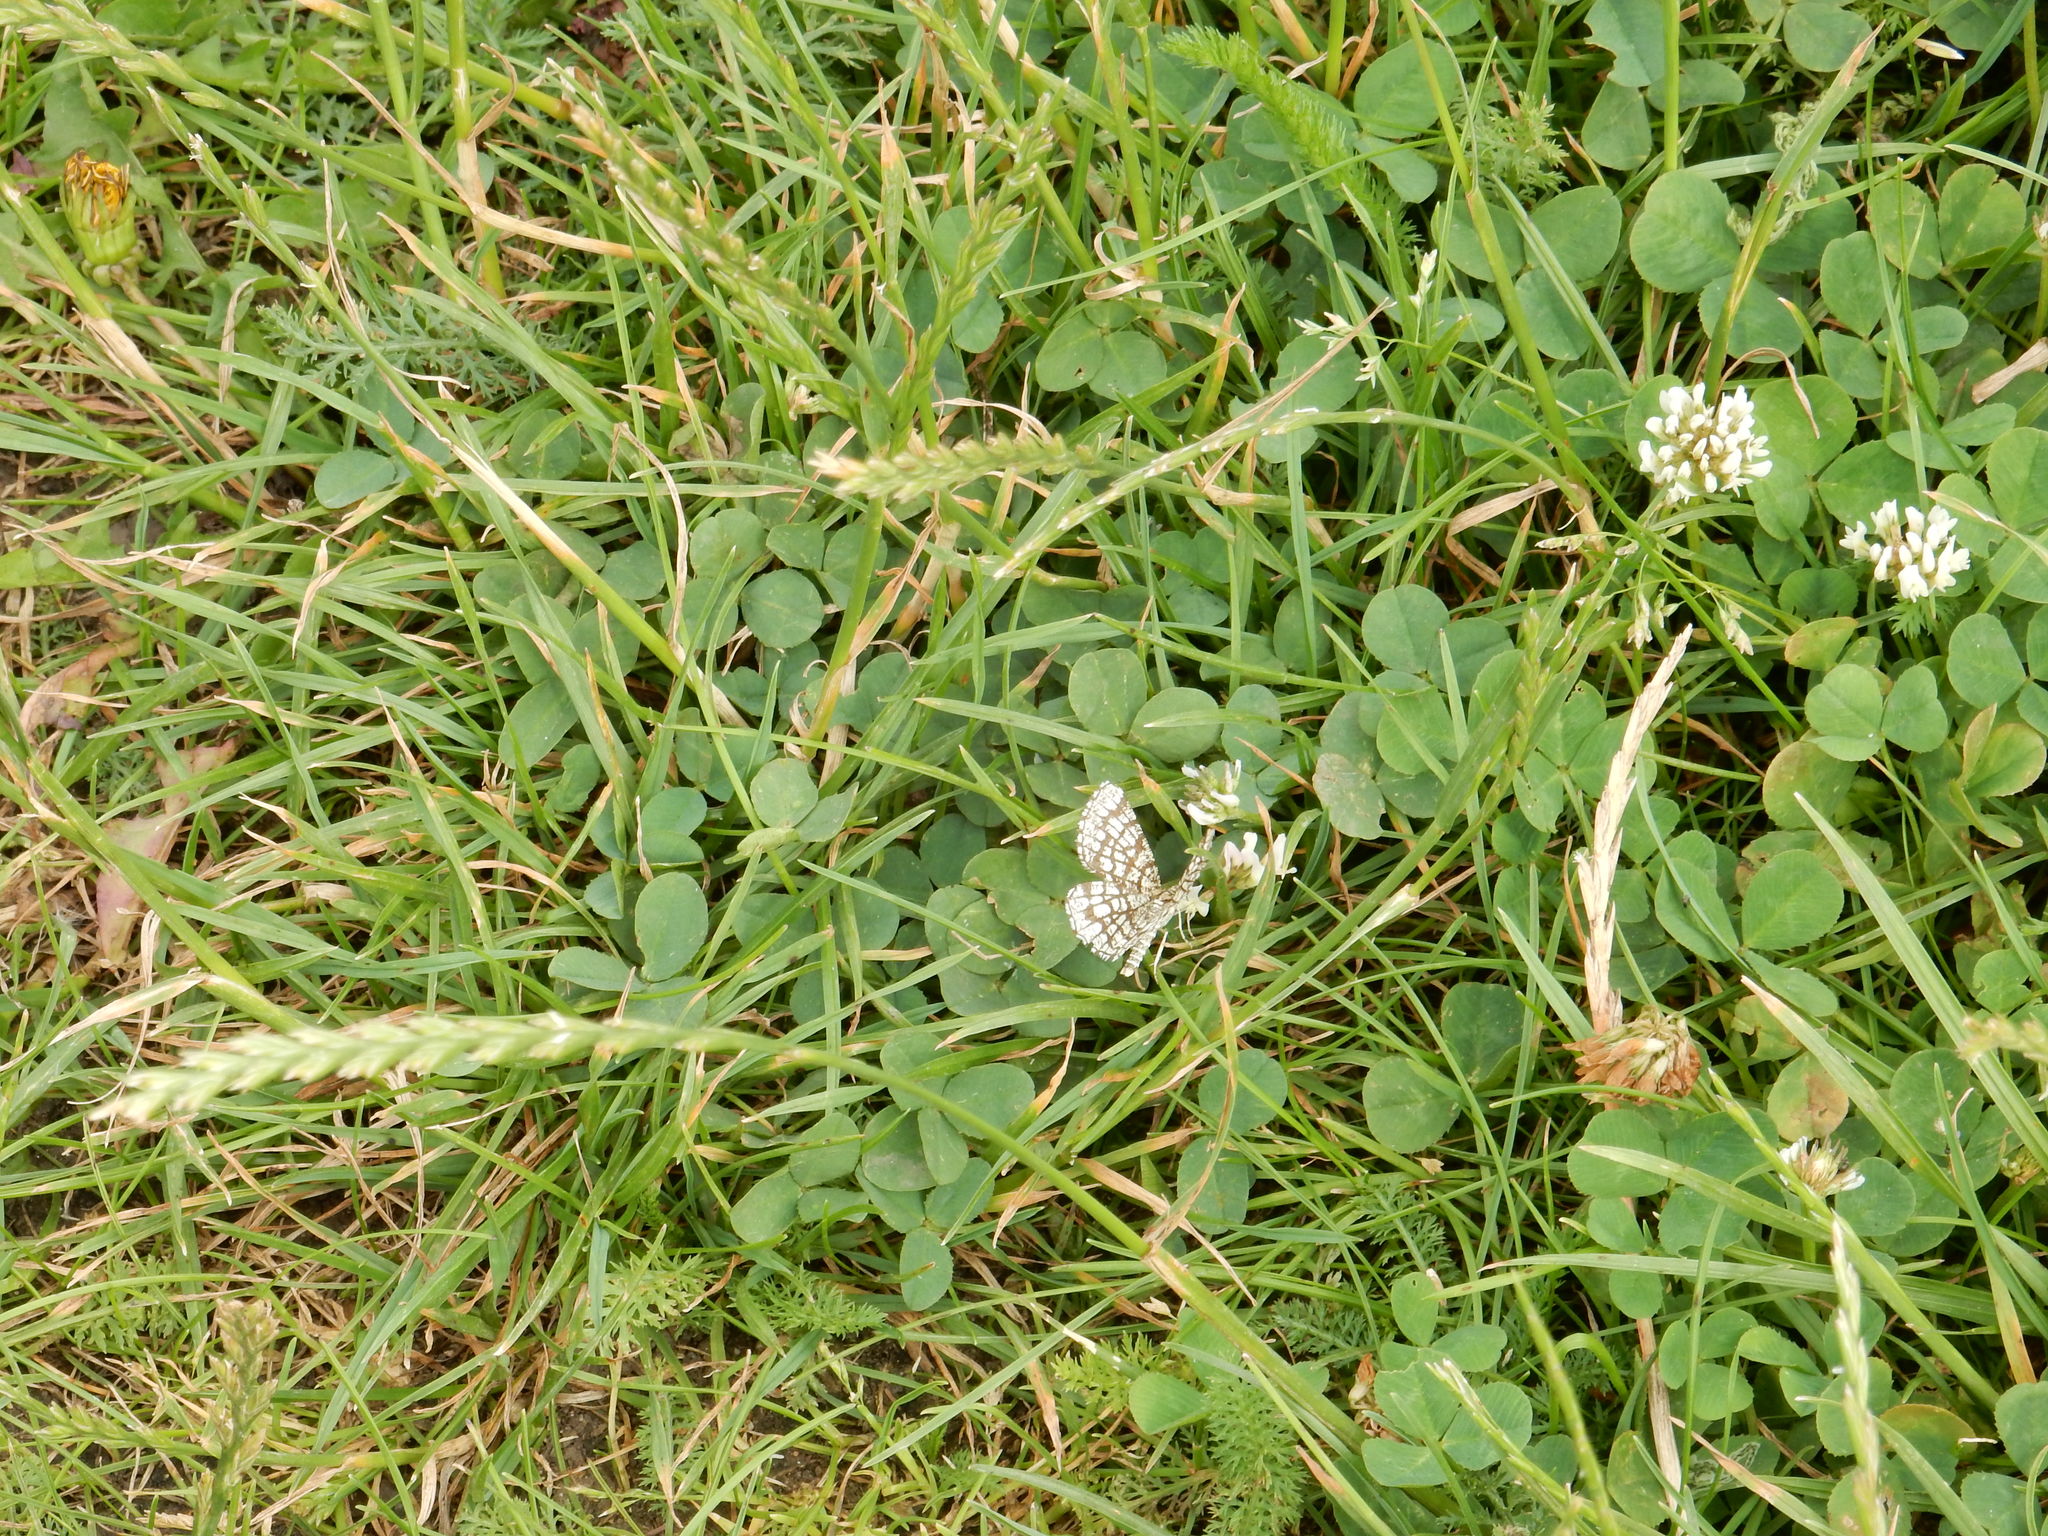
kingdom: Animalia
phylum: Arthropoda
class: Insecta
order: Lepidoptera
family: Geometridae
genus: Chiasmia
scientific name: Chiasmia clathrata
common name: Latticed heath
